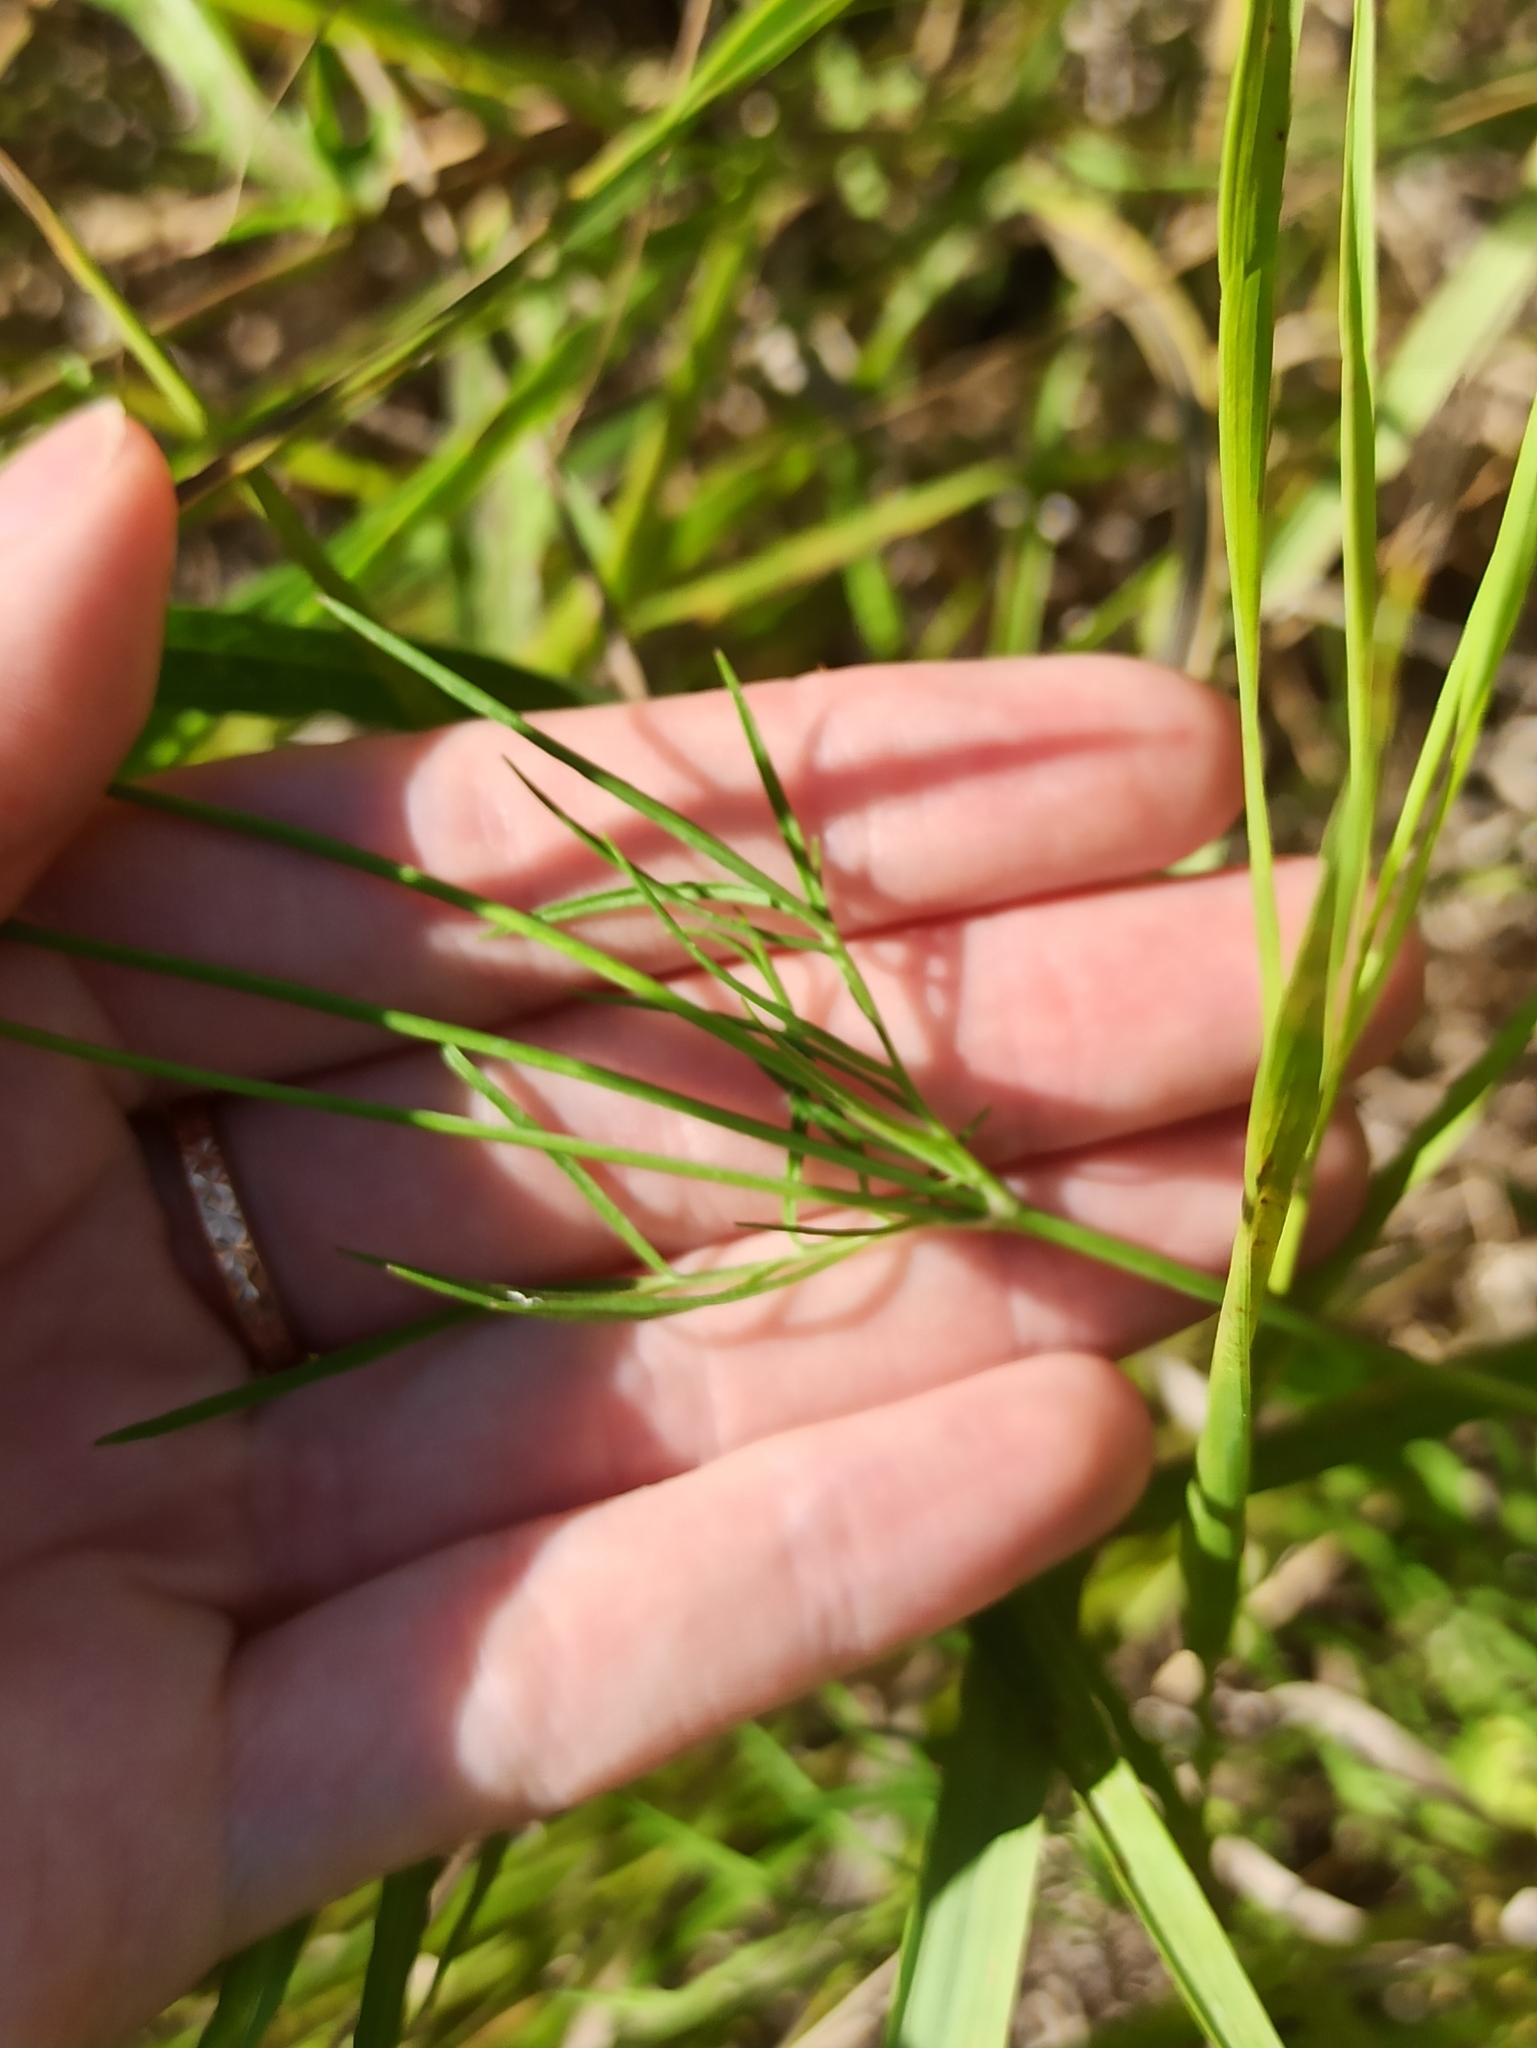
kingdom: Plantae
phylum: Tracheophyta
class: Magnoliopsida
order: Dipsacales
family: Caprifoliaceae
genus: Scabiosa
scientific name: Scabiosa ochroleuca
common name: Cream pincushions
